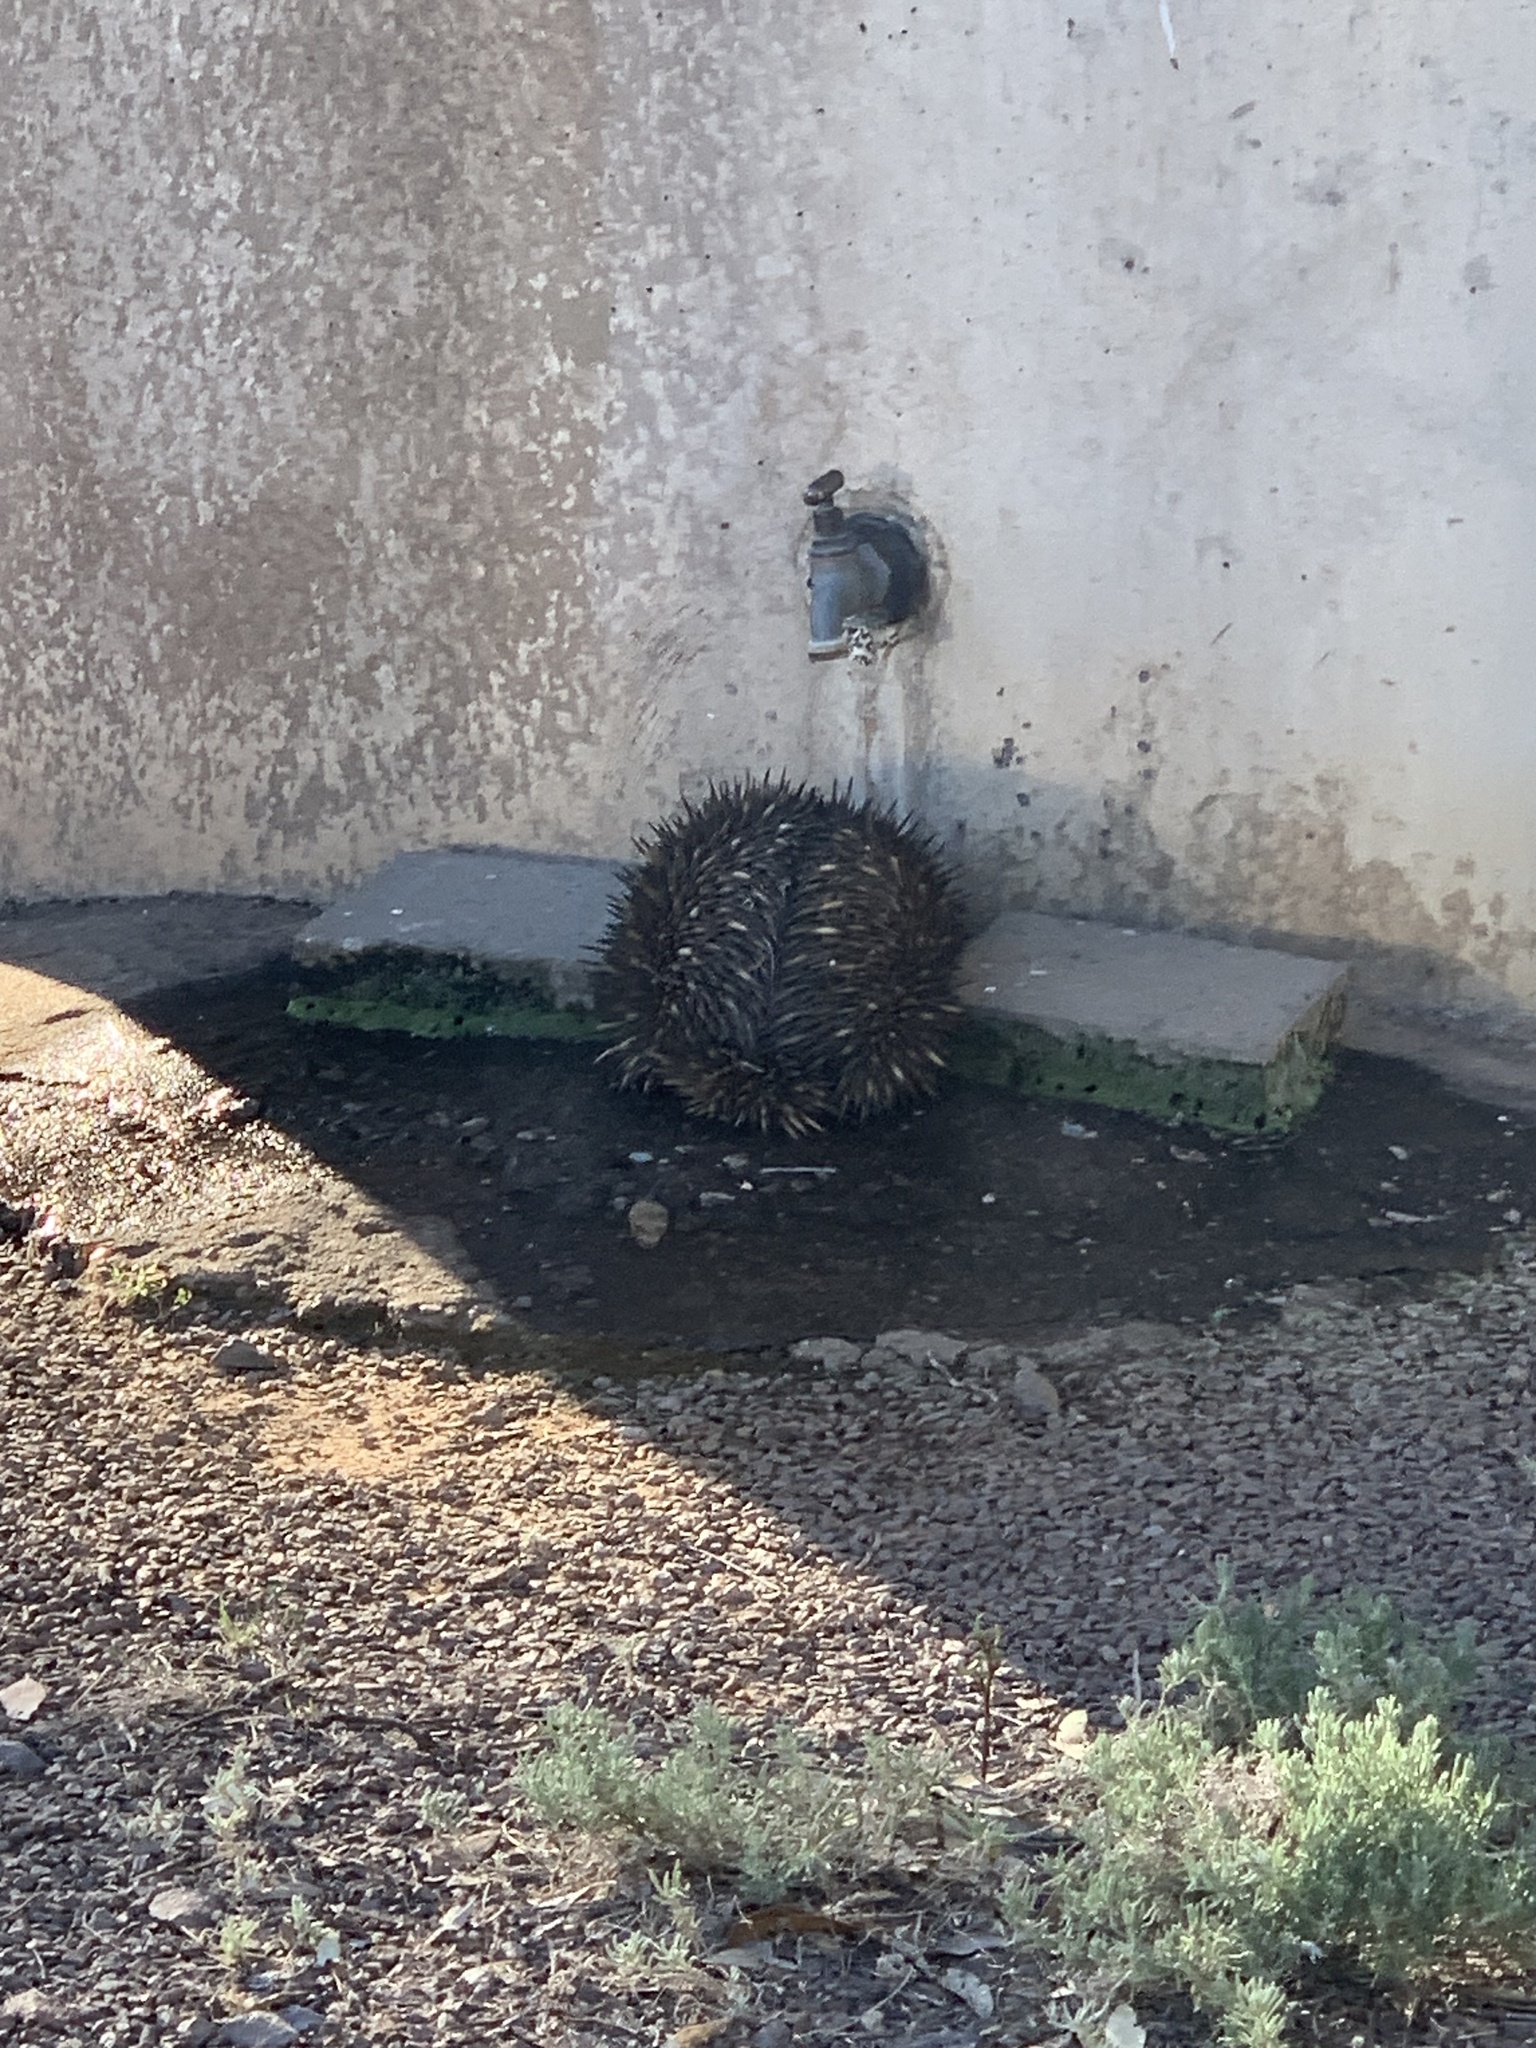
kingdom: Animalia
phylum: Chordata
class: Mammalia
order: Monotremata
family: Tachyglossidae
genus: Tachyglossus
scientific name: Tachyglossus aculeatus
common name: Short-beaked echidna
